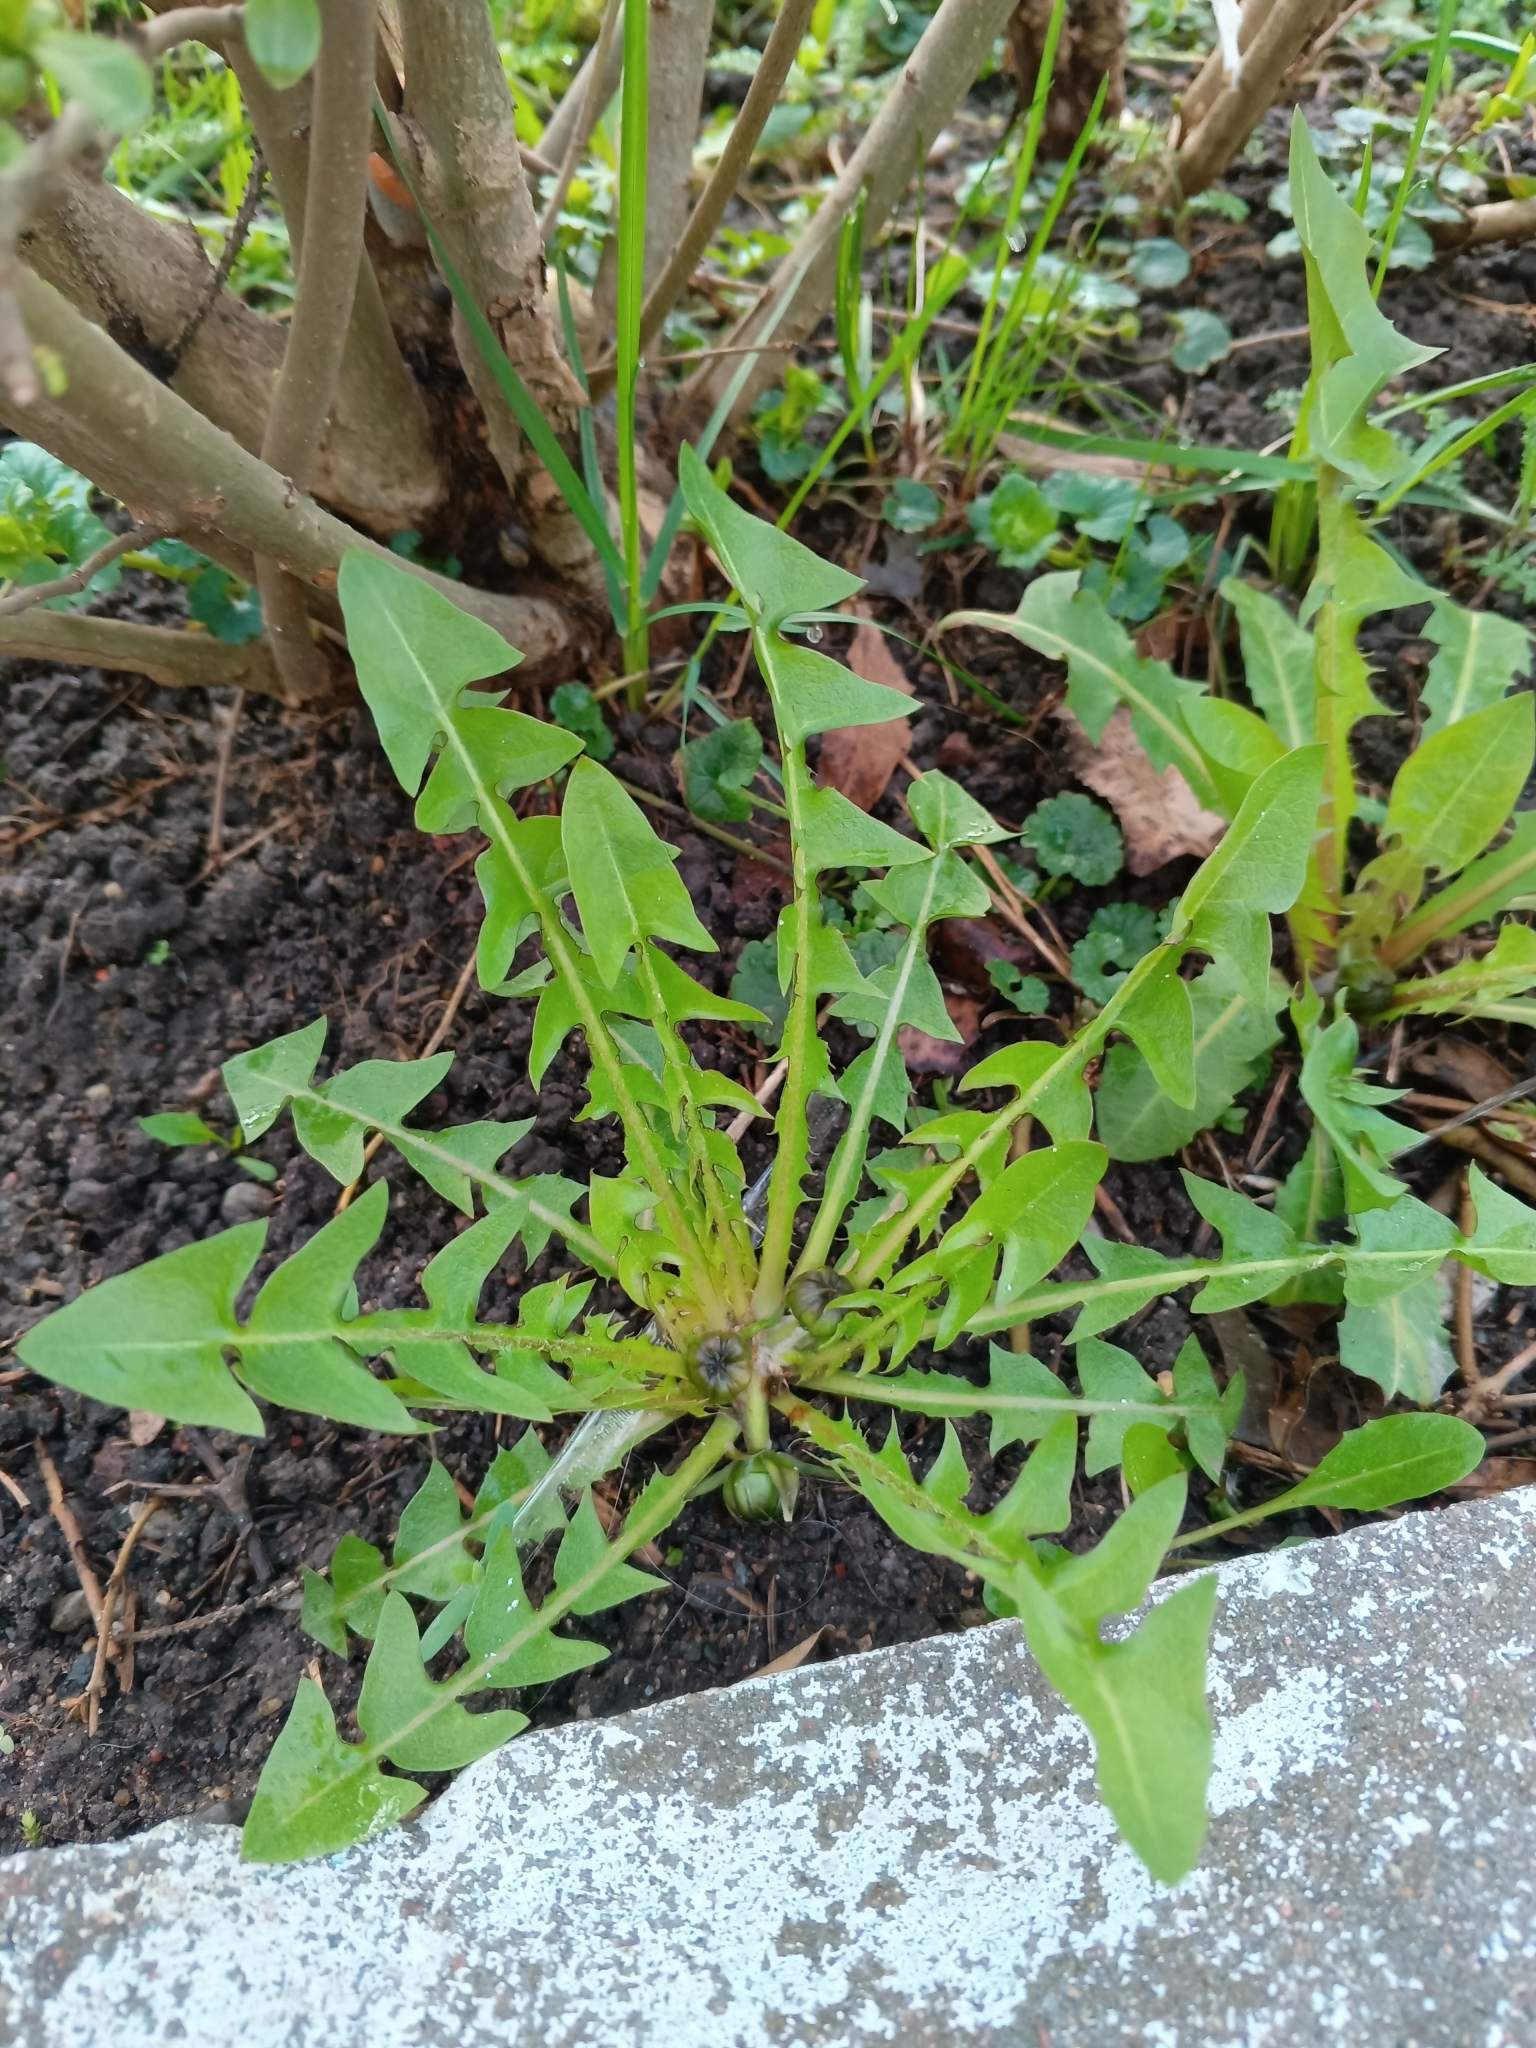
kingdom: Plantae
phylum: Tracheophyta
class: Magnoliopsida
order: Asterales
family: Asteraceae
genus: Taraxacum
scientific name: Taraxacum officinale
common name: Common dandelion
